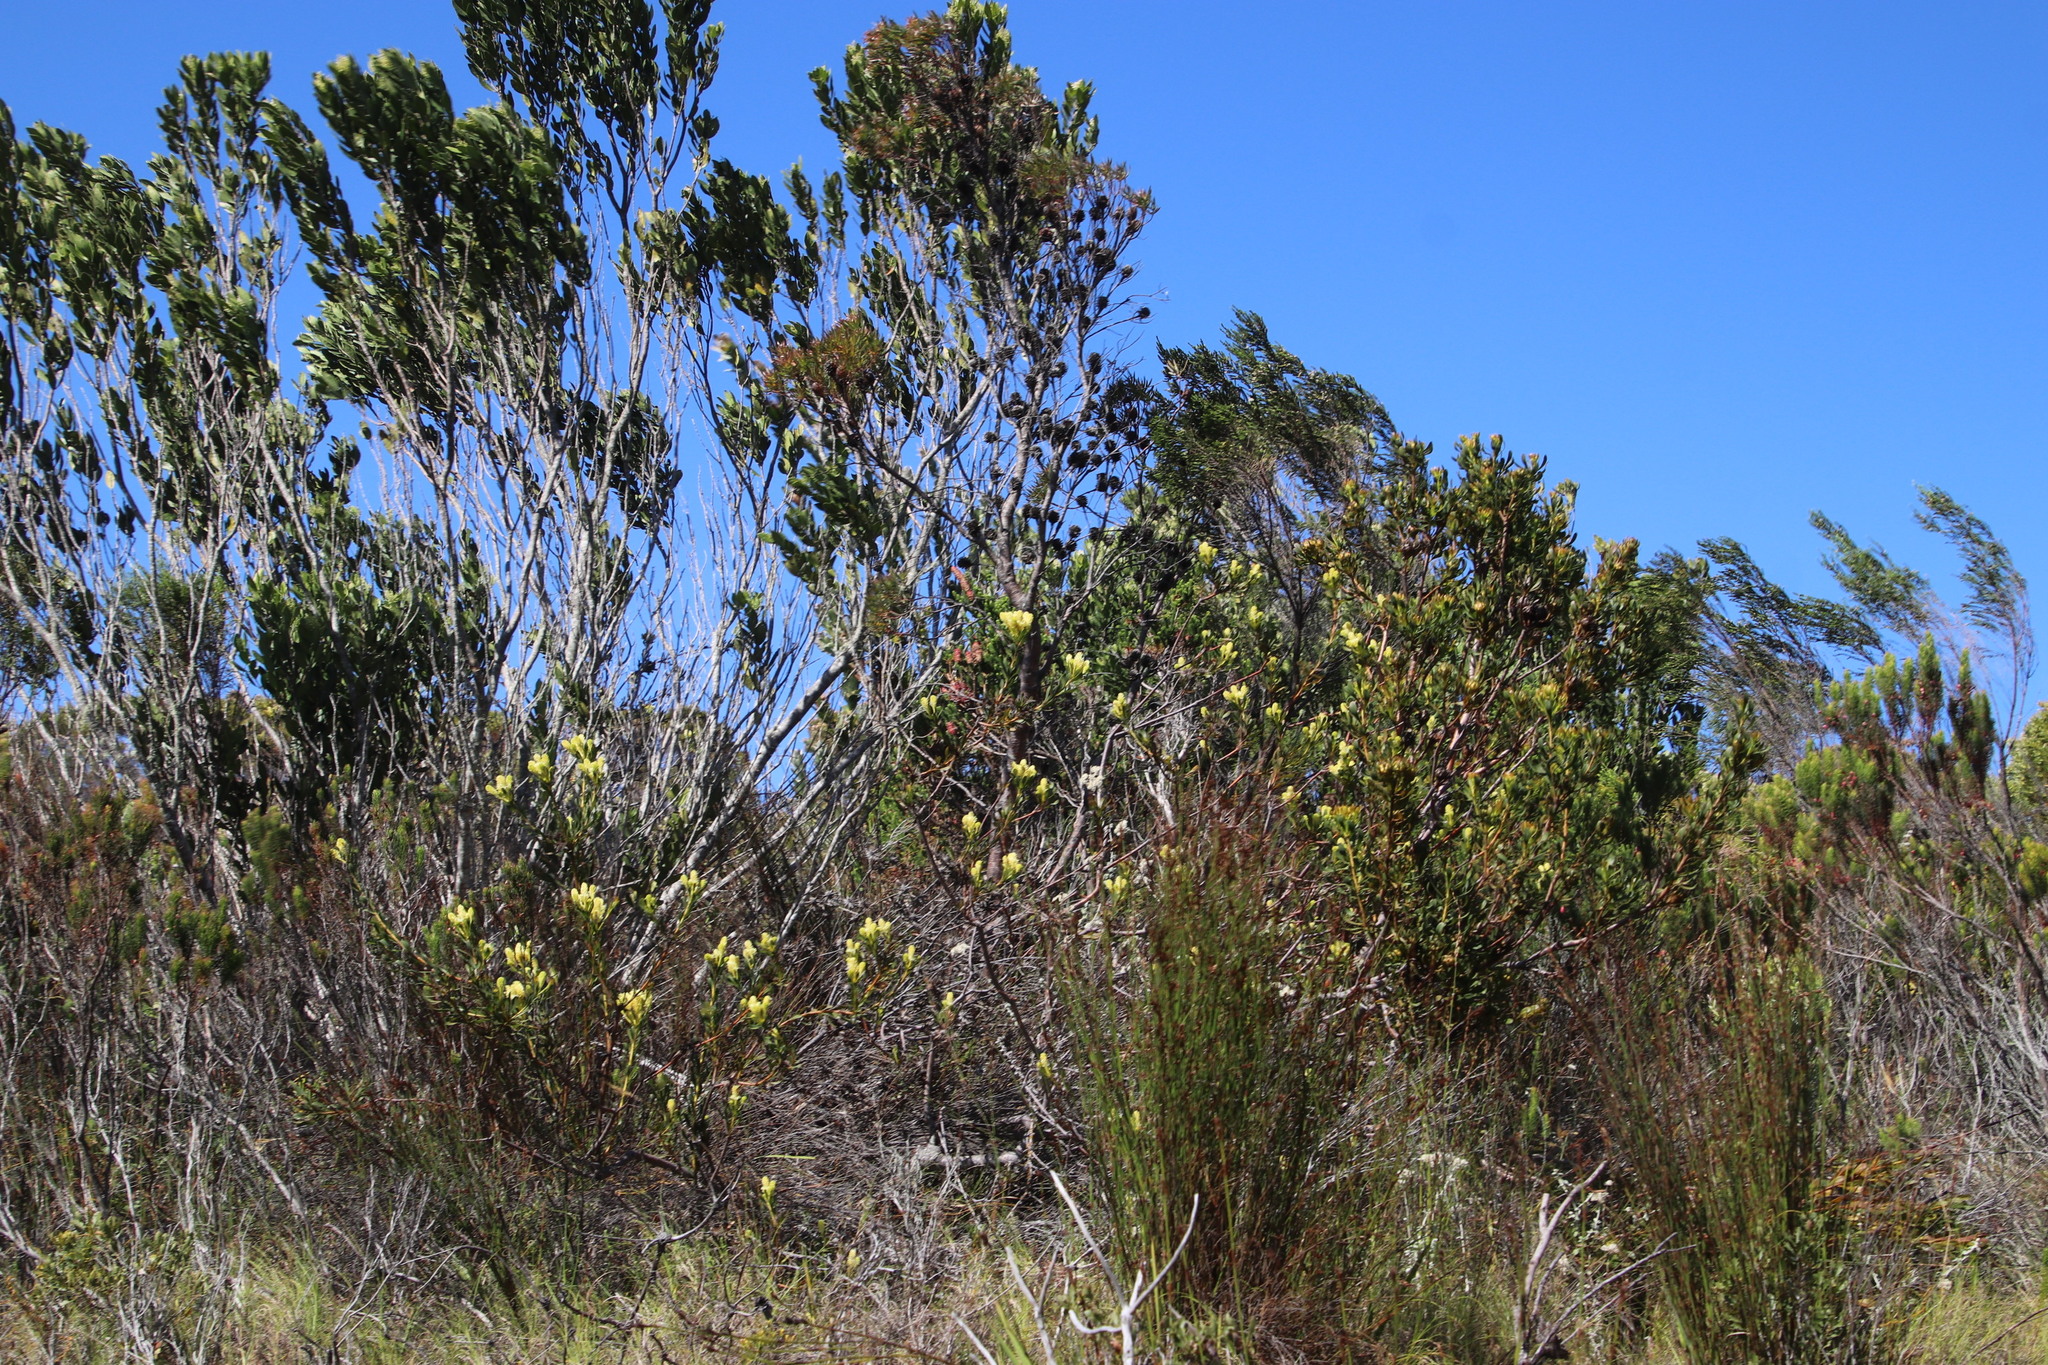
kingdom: Plantae
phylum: Tracheophyta
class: Magnoliopsida
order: Proteales
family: Proteaceae
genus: Aulax
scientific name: Aulax umbellata
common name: Broad-leaf featherbush
